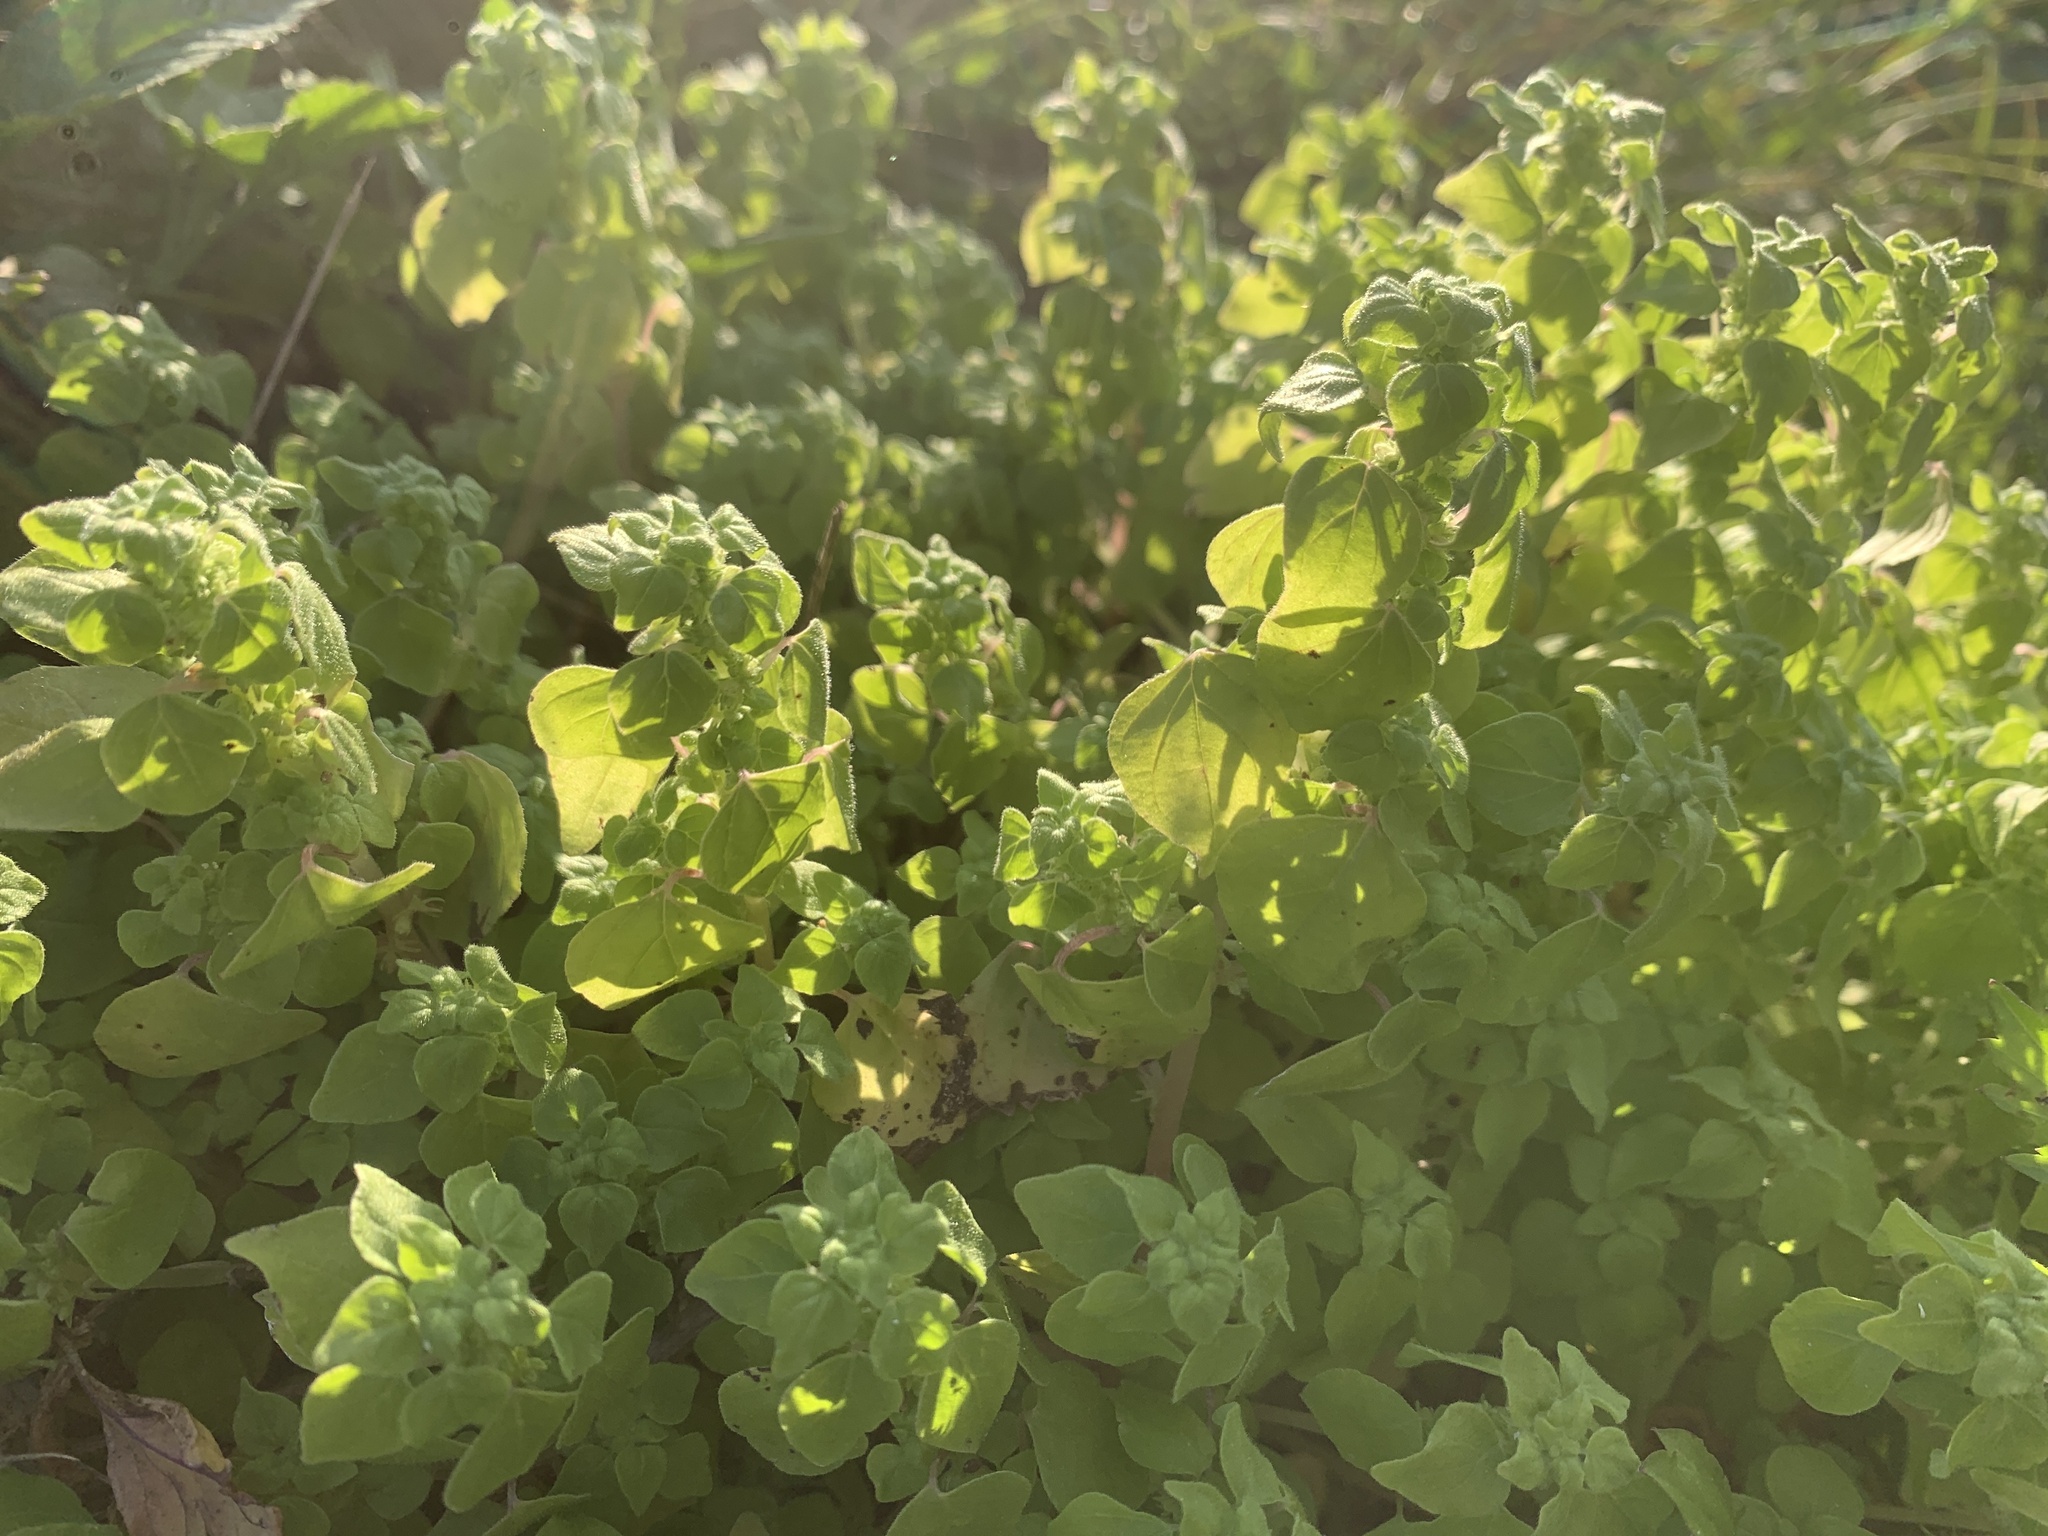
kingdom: Plantae
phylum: Tracheophyta
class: Magnoliopsida
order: Rosales
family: Urticaceae
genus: Parietaria
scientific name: Parietaria floridana
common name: Florida pellitory
